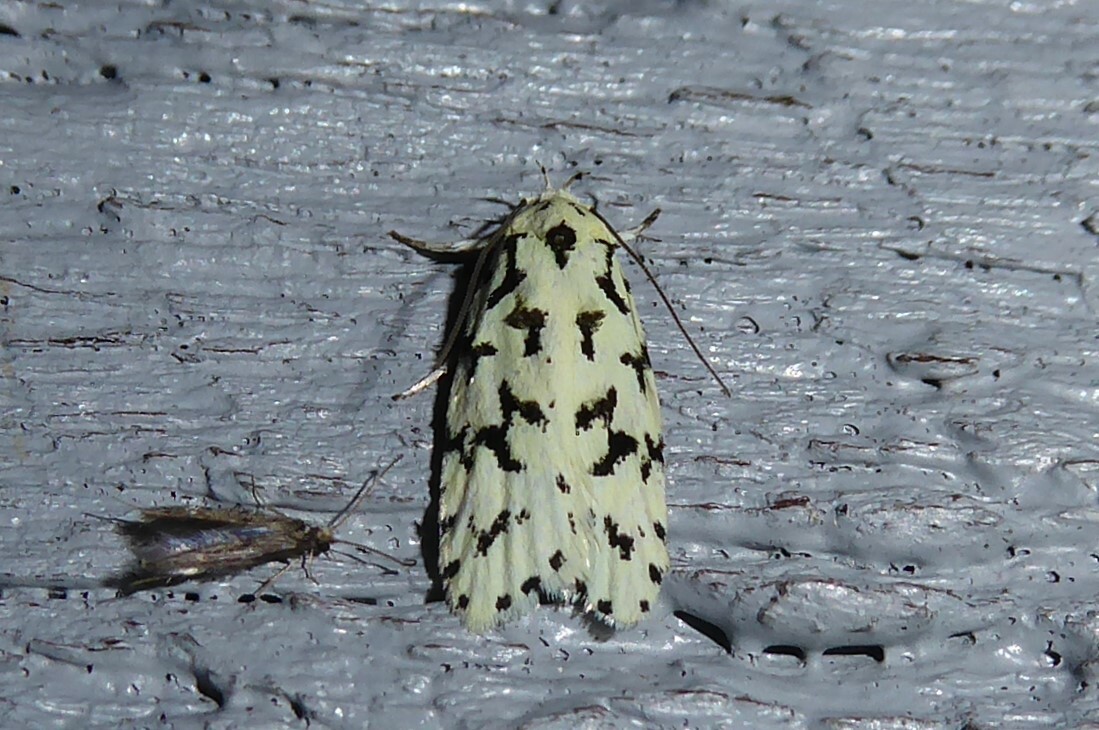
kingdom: Animalia
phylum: Arthropoda
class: Insecta
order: Lepidoptera
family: Oecophoridae
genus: Izatha
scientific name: Izatha huttoni
